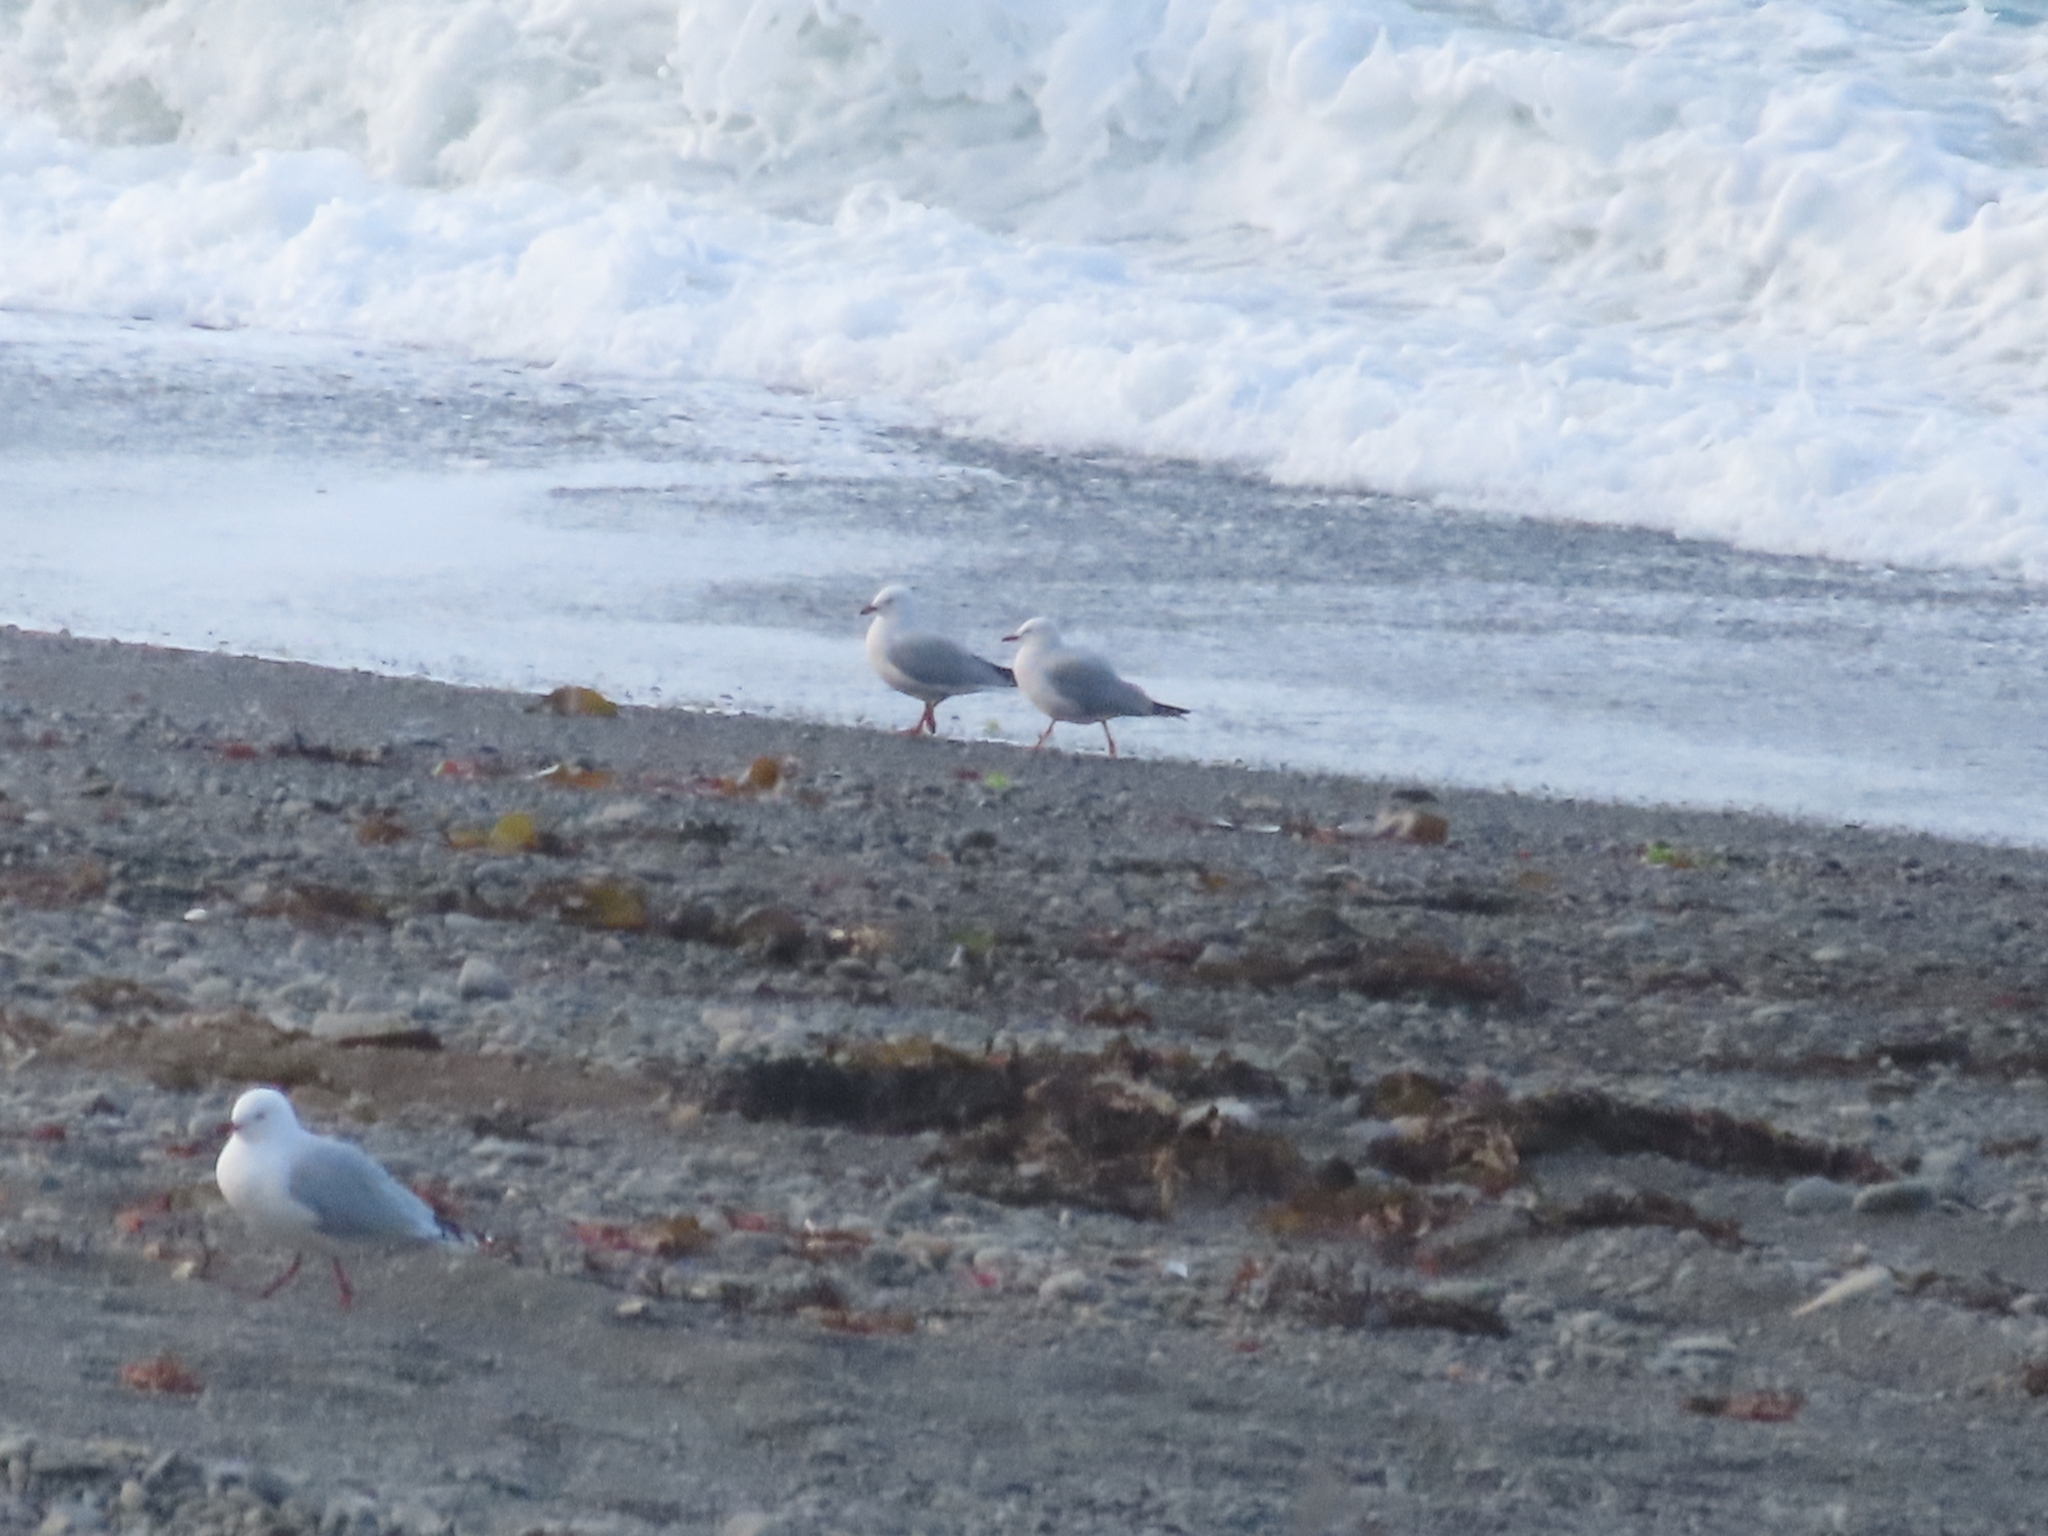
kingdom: Animalia
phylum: Chordata
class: Aves
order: Charadriiformes
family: Laridae
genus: Chroicocephalus
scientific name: Chroicocephalus novaehollandiae
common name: Silver gull
